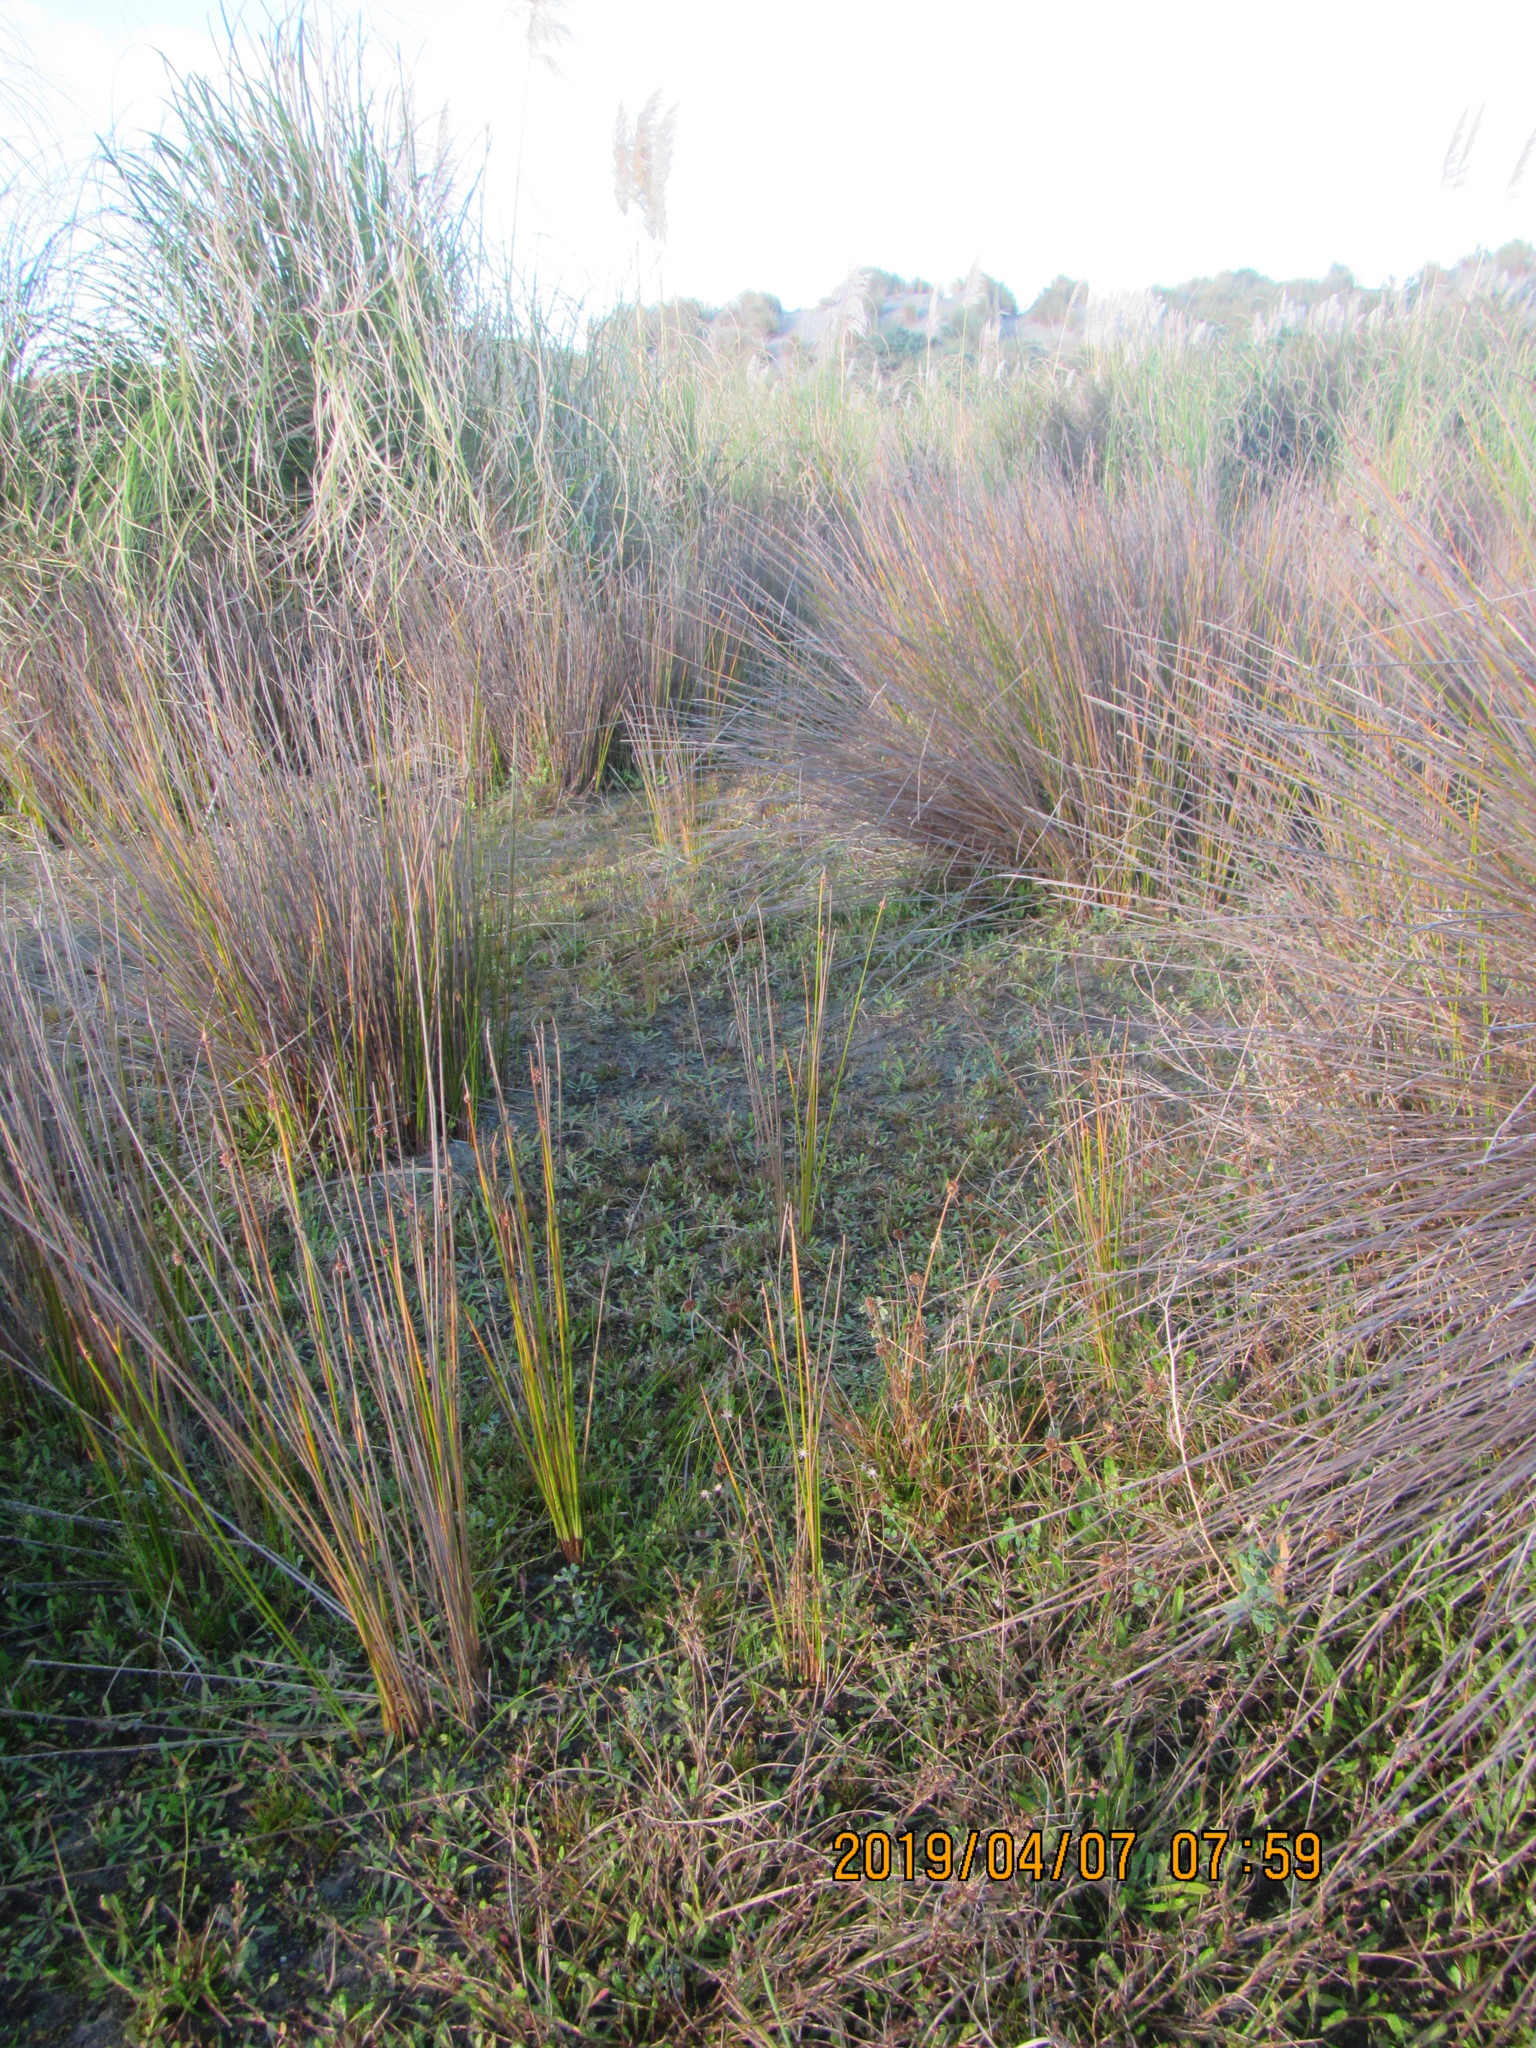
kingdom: Plantae
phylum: Tracheophyta
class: Liliopsida
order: Poales
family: Juncaceae
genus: Juncus
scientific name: Juncus articulatus
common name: Jointed rush
